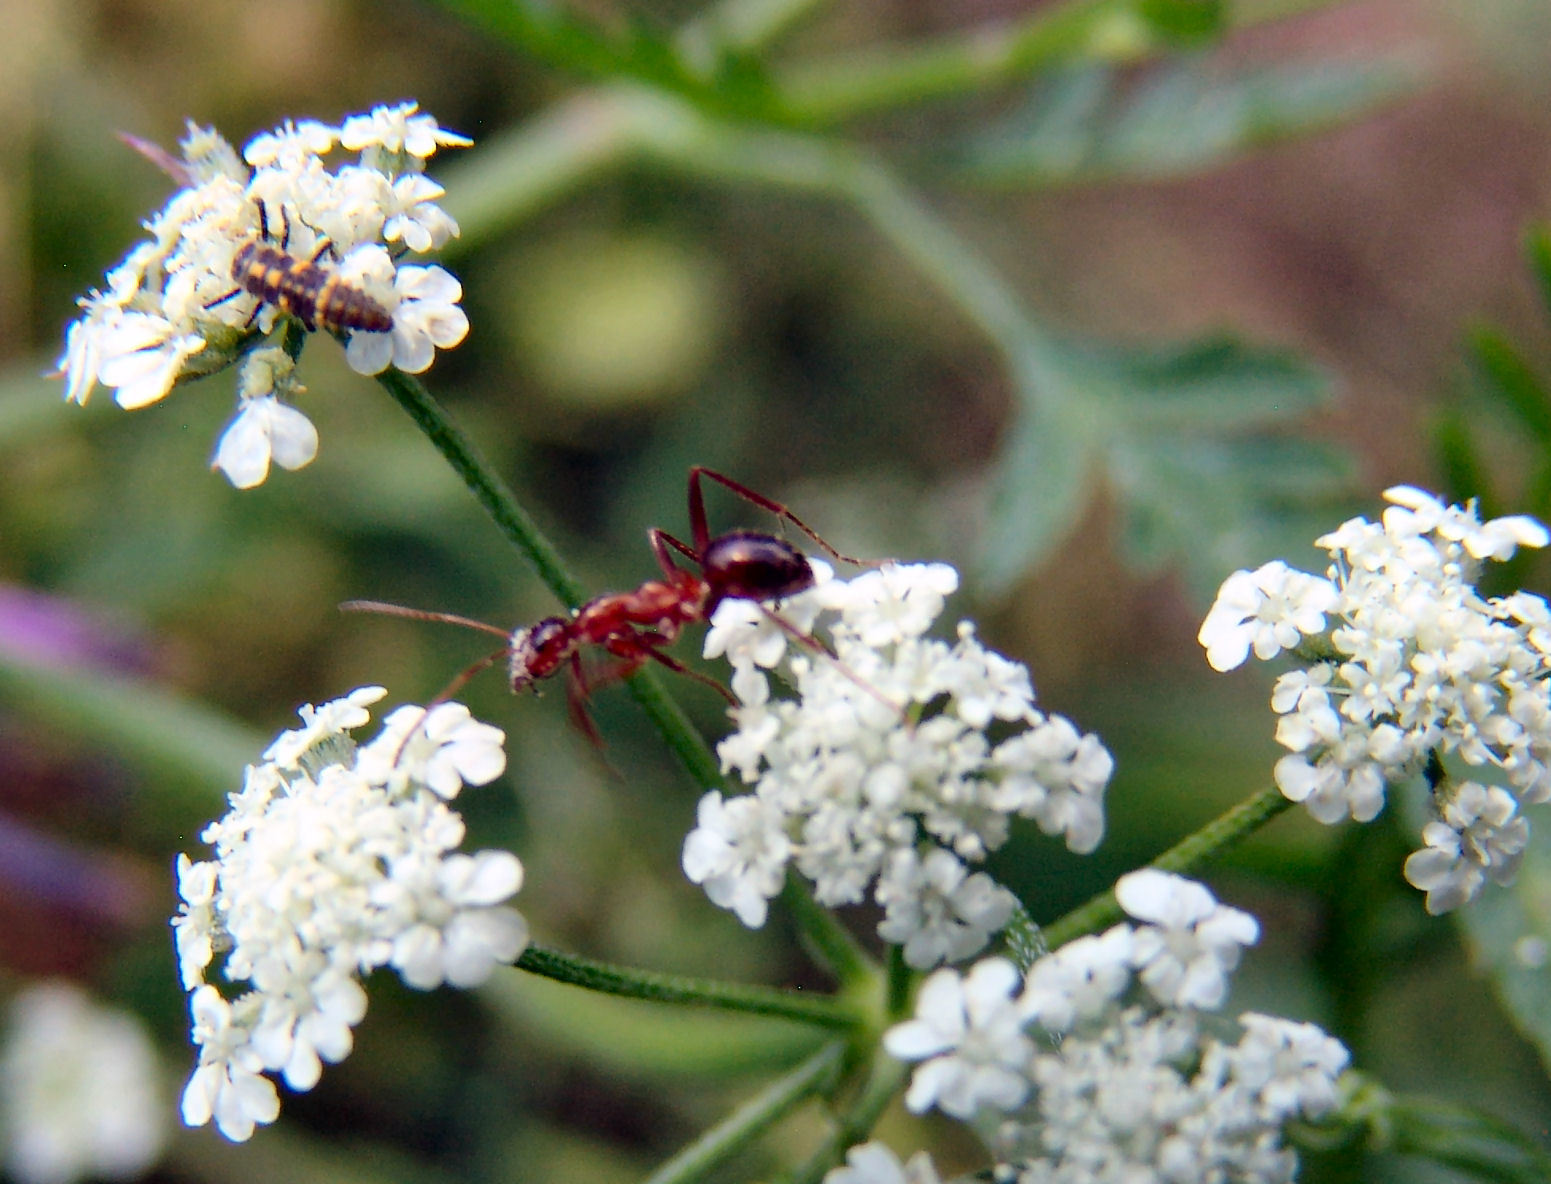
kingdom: Animalia
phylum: Arthropoda
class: Insecta
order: Hymenoptera
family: Formicidae
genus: Formica
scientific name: Formica pallidefulva
